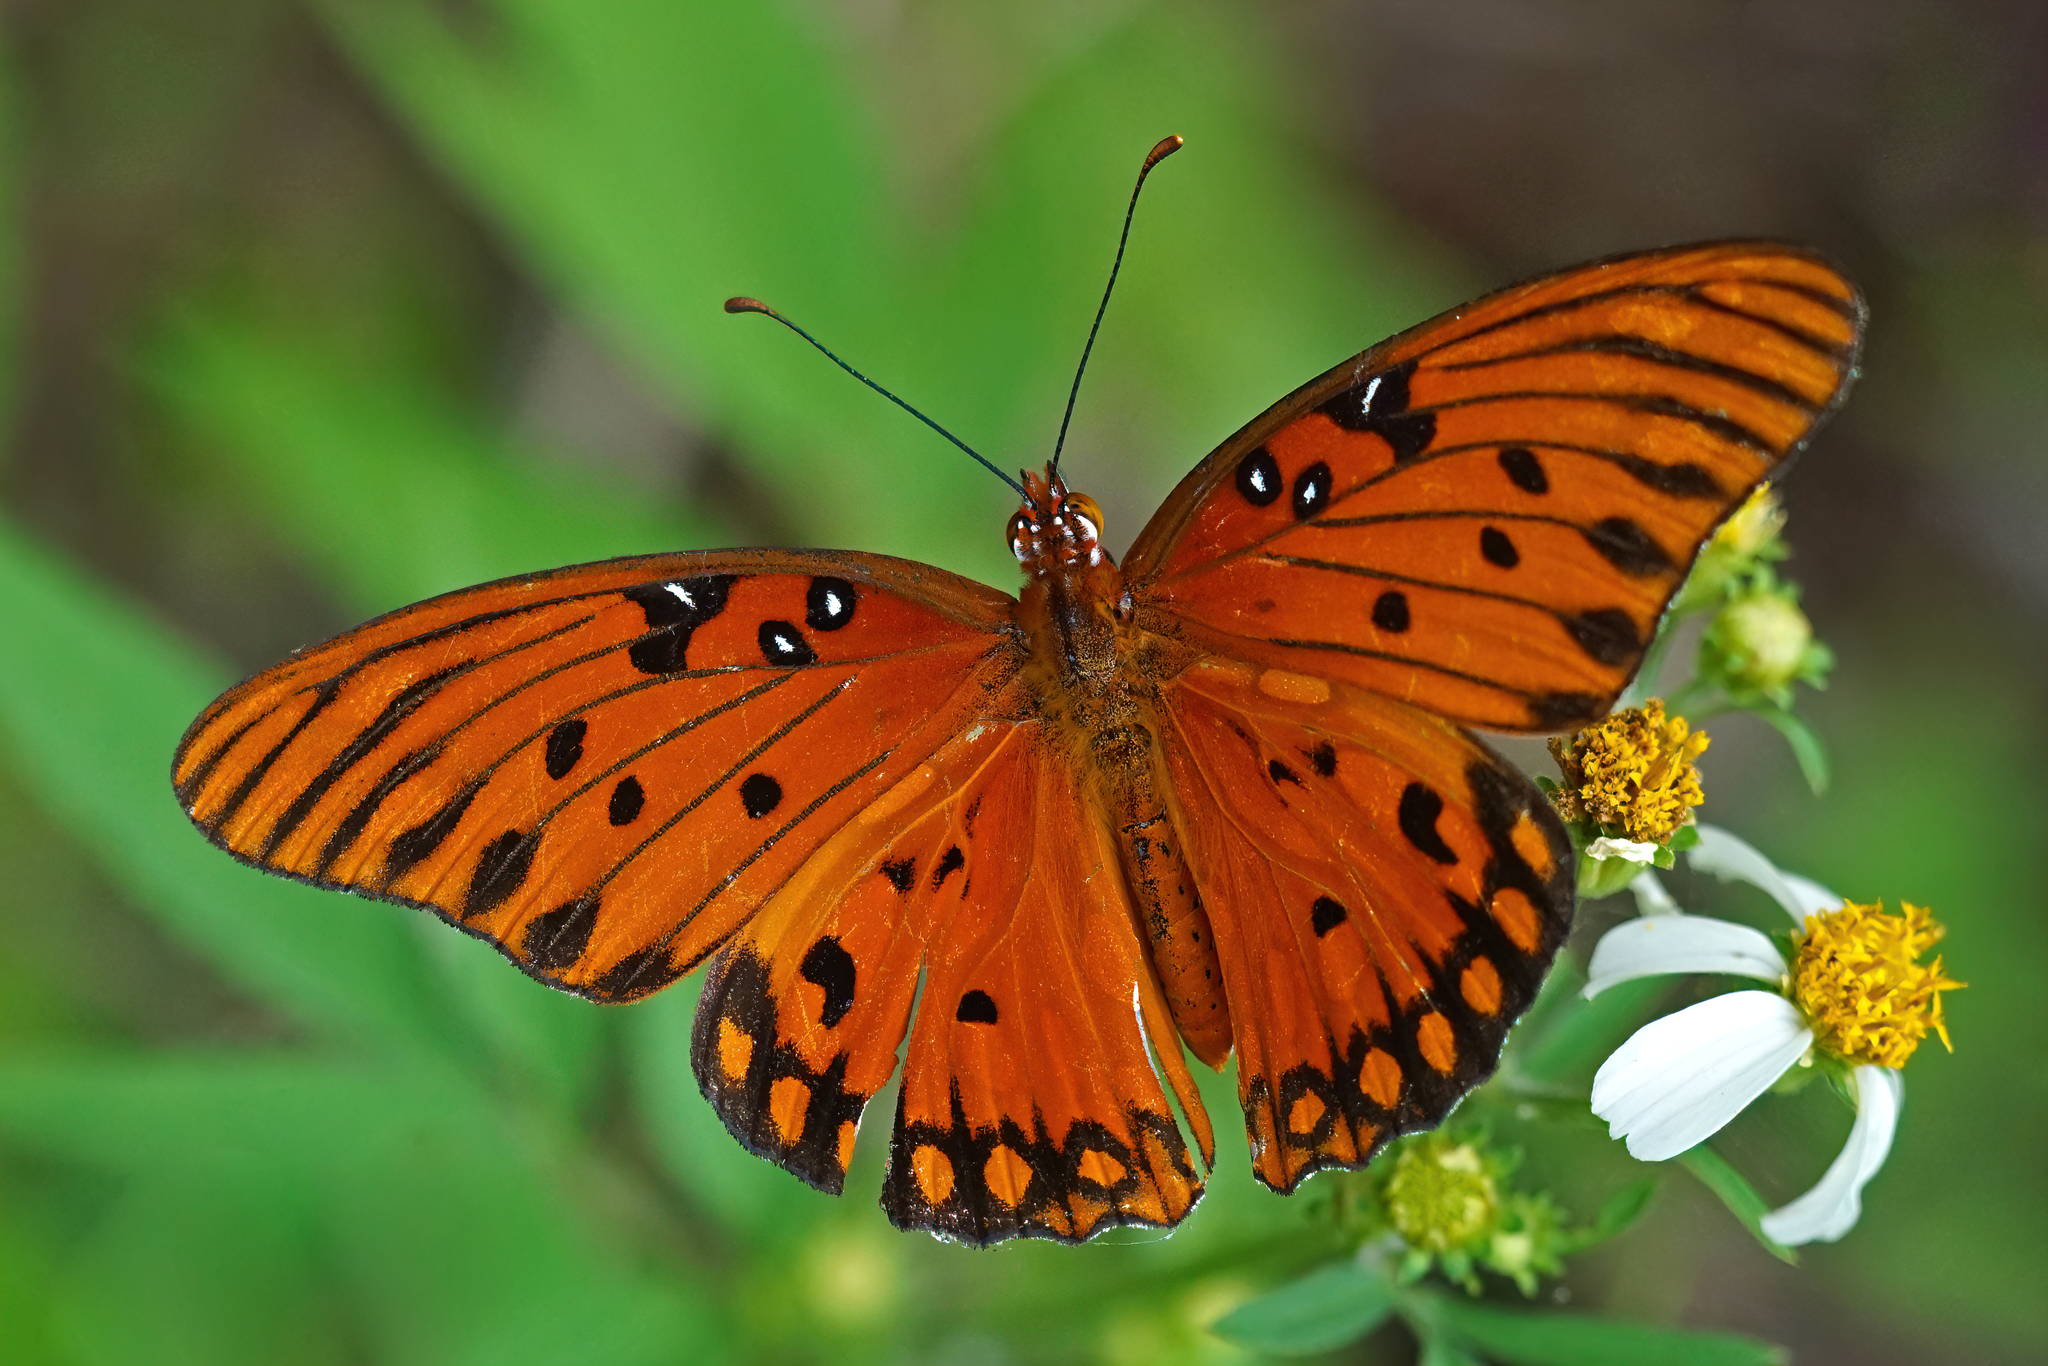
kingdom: Animalia
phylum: Arthropoda
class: Insecta
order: Lepidoptera
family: Nymphalidae
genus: Dione
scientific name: Dione vanillae
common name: Gulf fritillary
